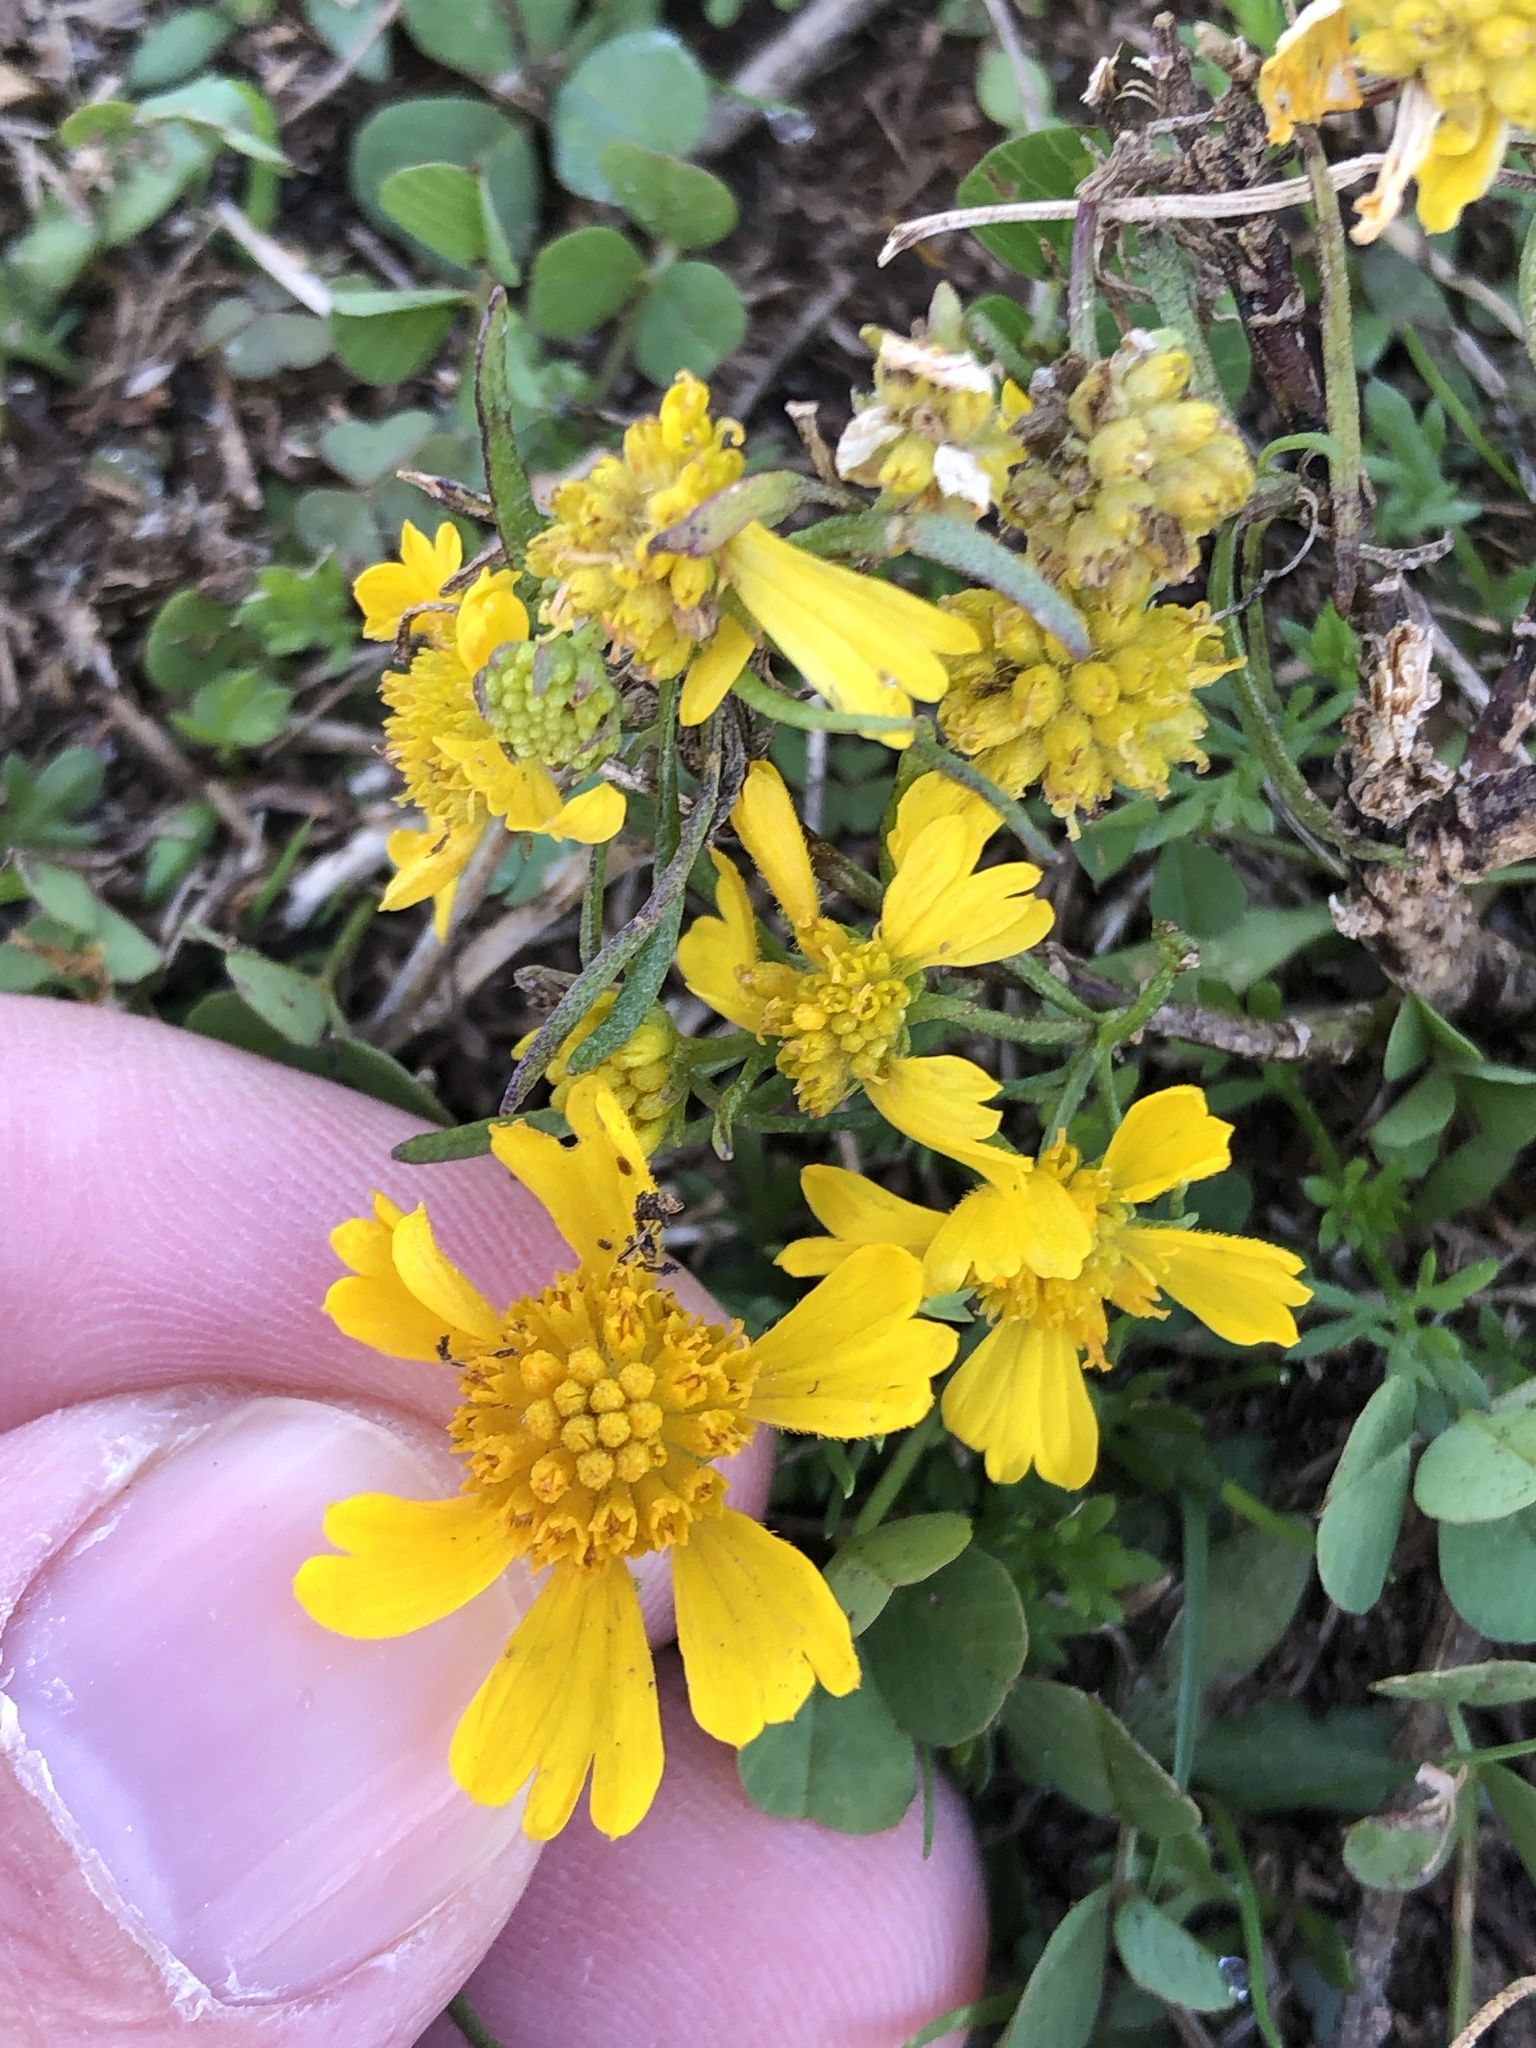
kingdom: Plantae
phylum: Tracheophyta
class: Magnoliopsida
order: Asterales
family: Asteraceae
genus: Helenium
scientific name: Helenium amarum
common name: Bitter sneezeweed
